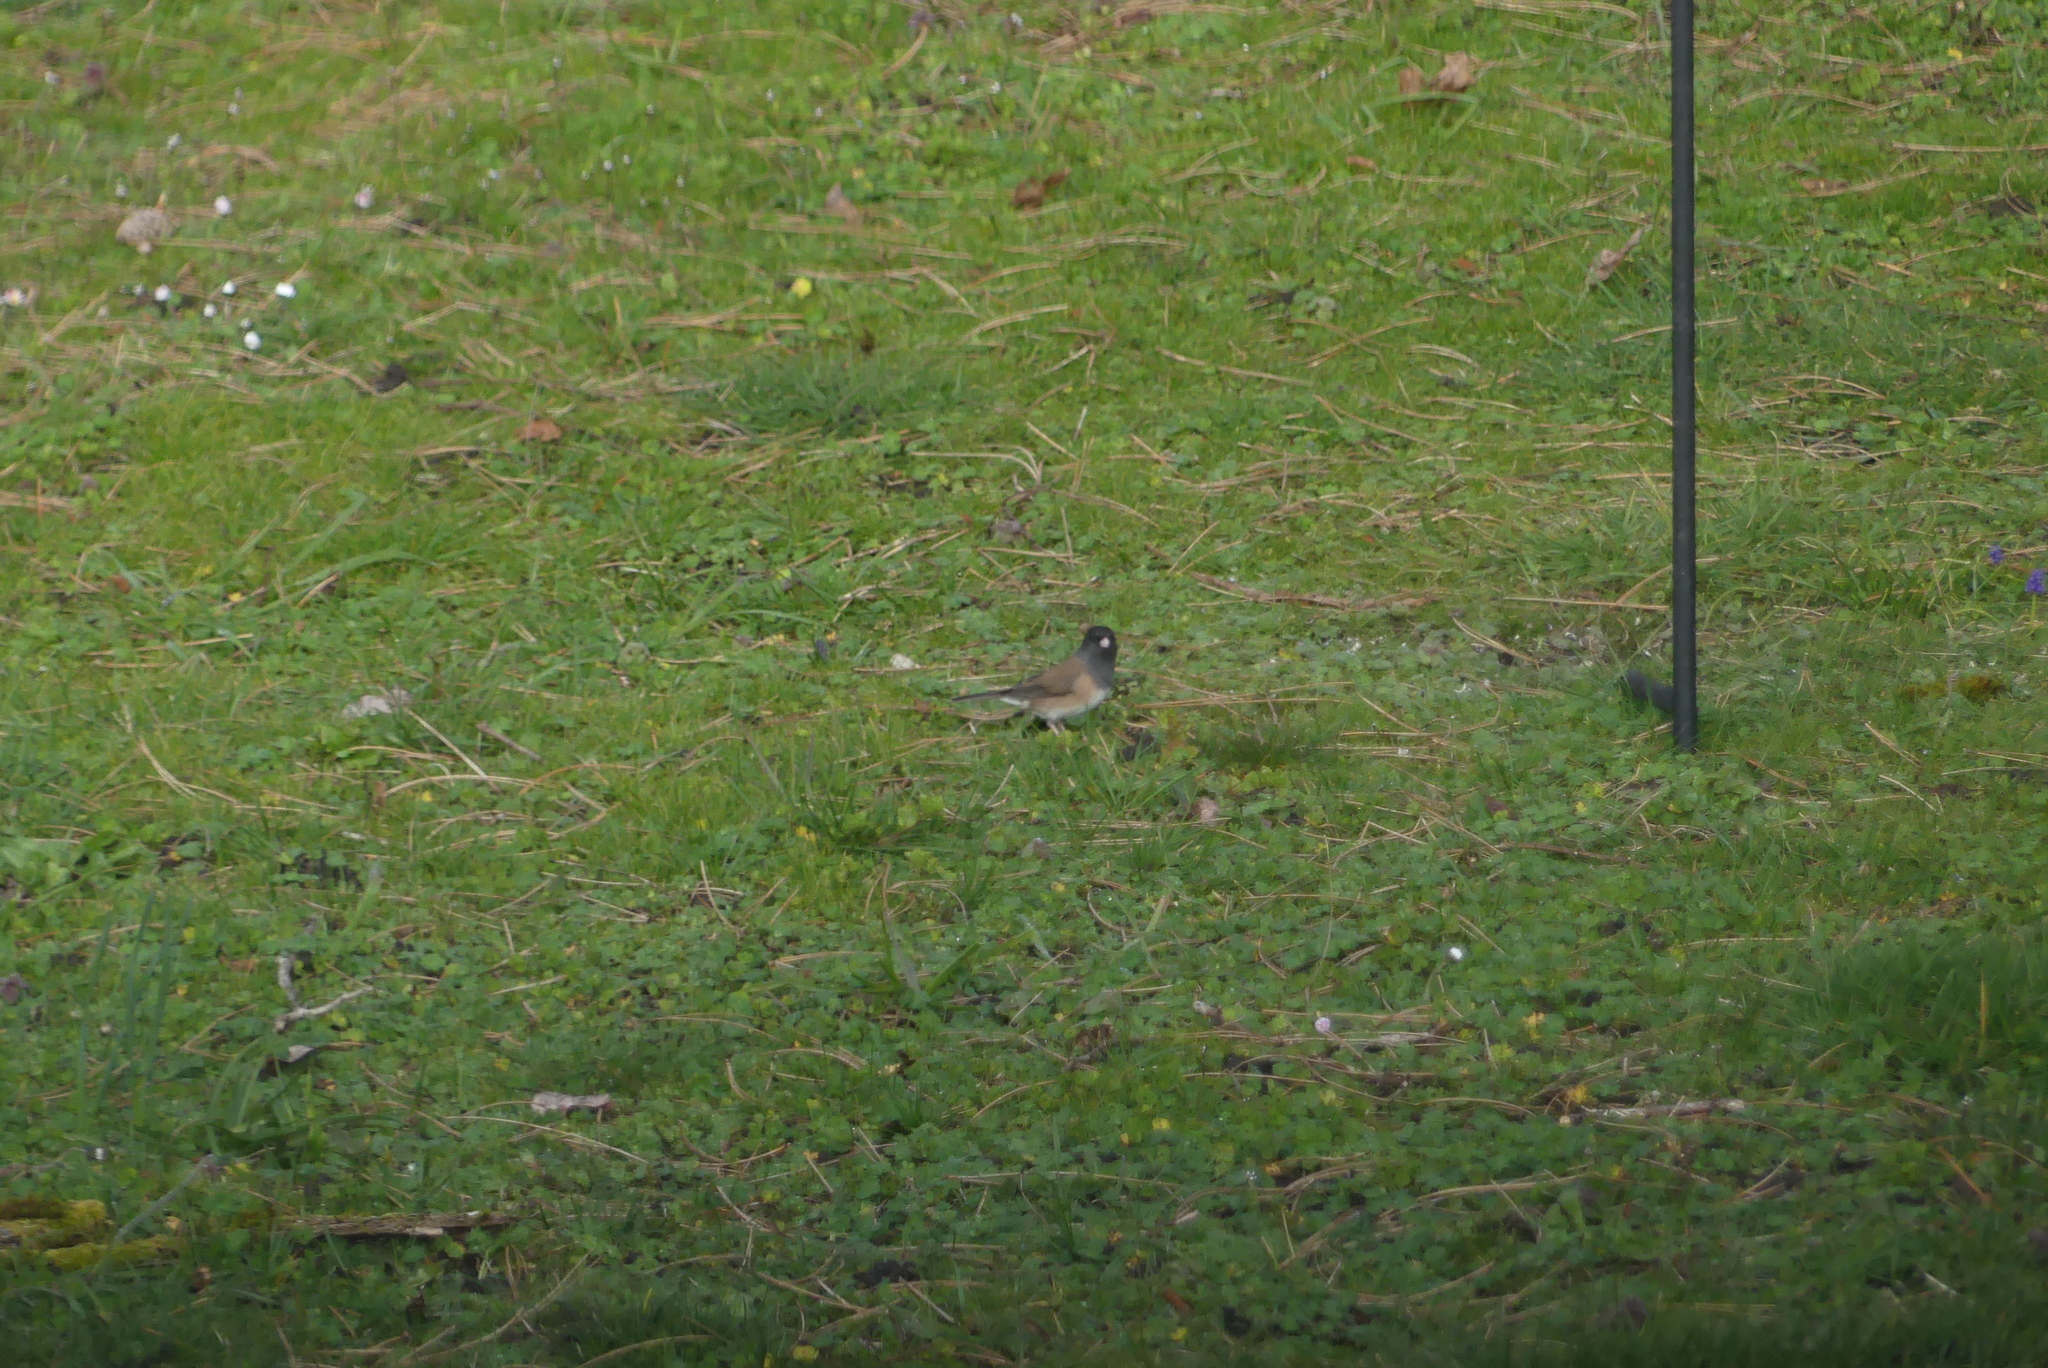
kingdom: Animalia
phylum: Chordata
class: Aves
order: Passeriformes
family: Passerellidae
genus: Junco
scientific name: Junco hyemalis
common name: Dark-eyed junco
